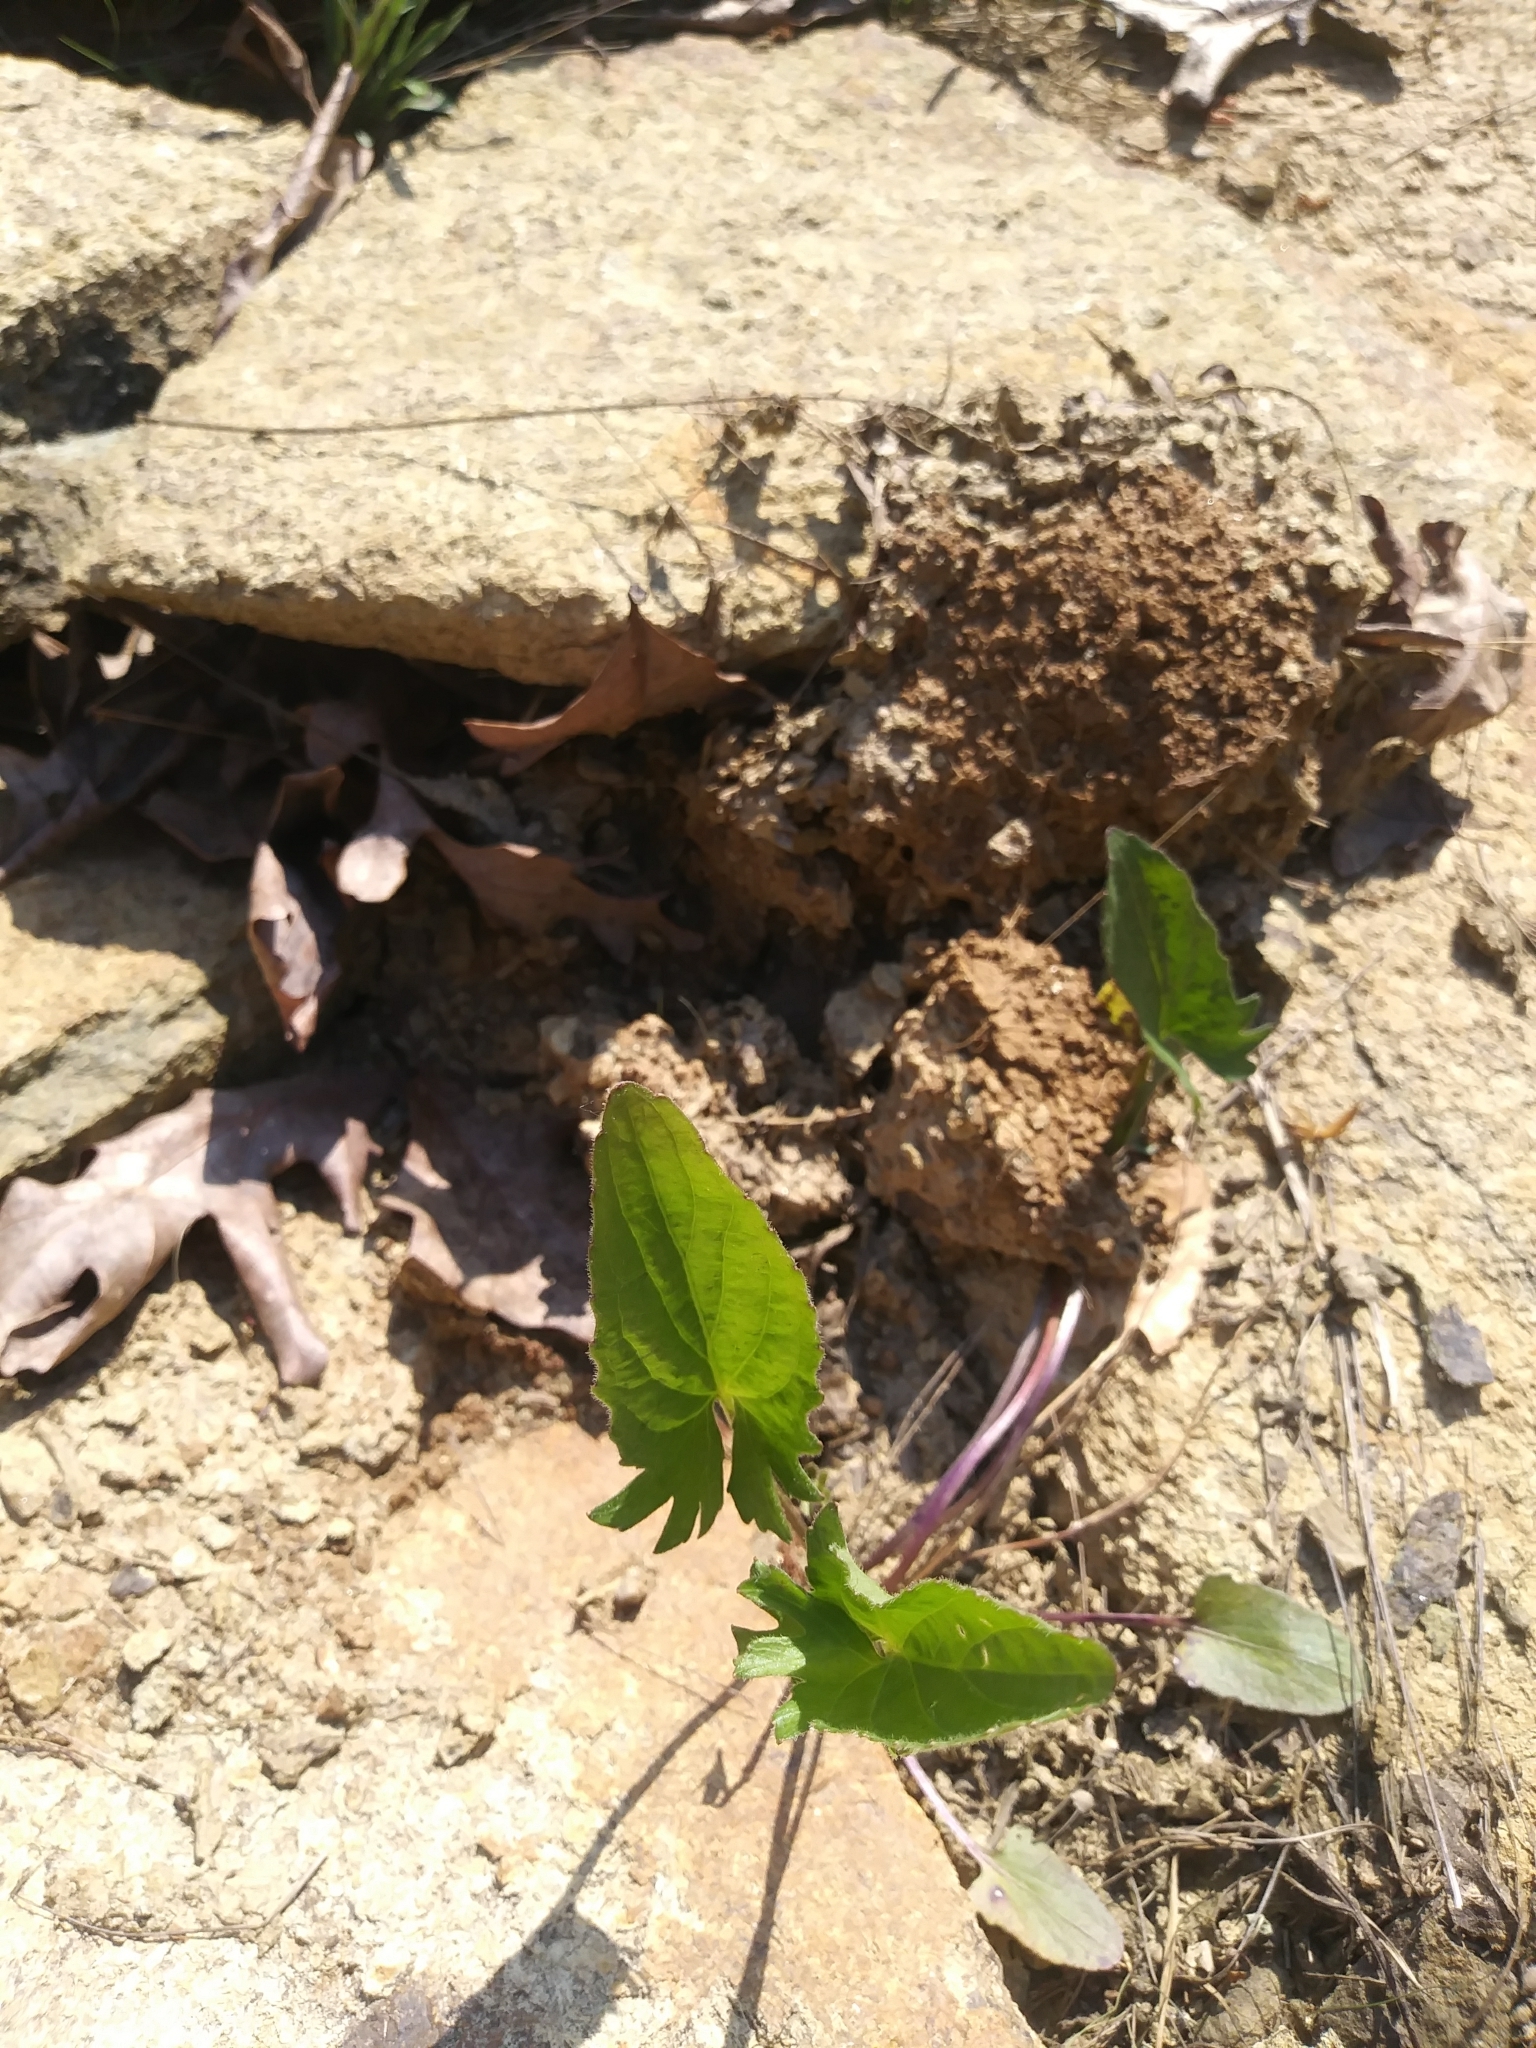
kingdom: Plantae
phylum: Tracheophyta
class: Magnoliopsida
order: Malpighiales
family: Violaceae
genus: Viola
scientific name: Viola sagittata
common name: Arrowhead violet
